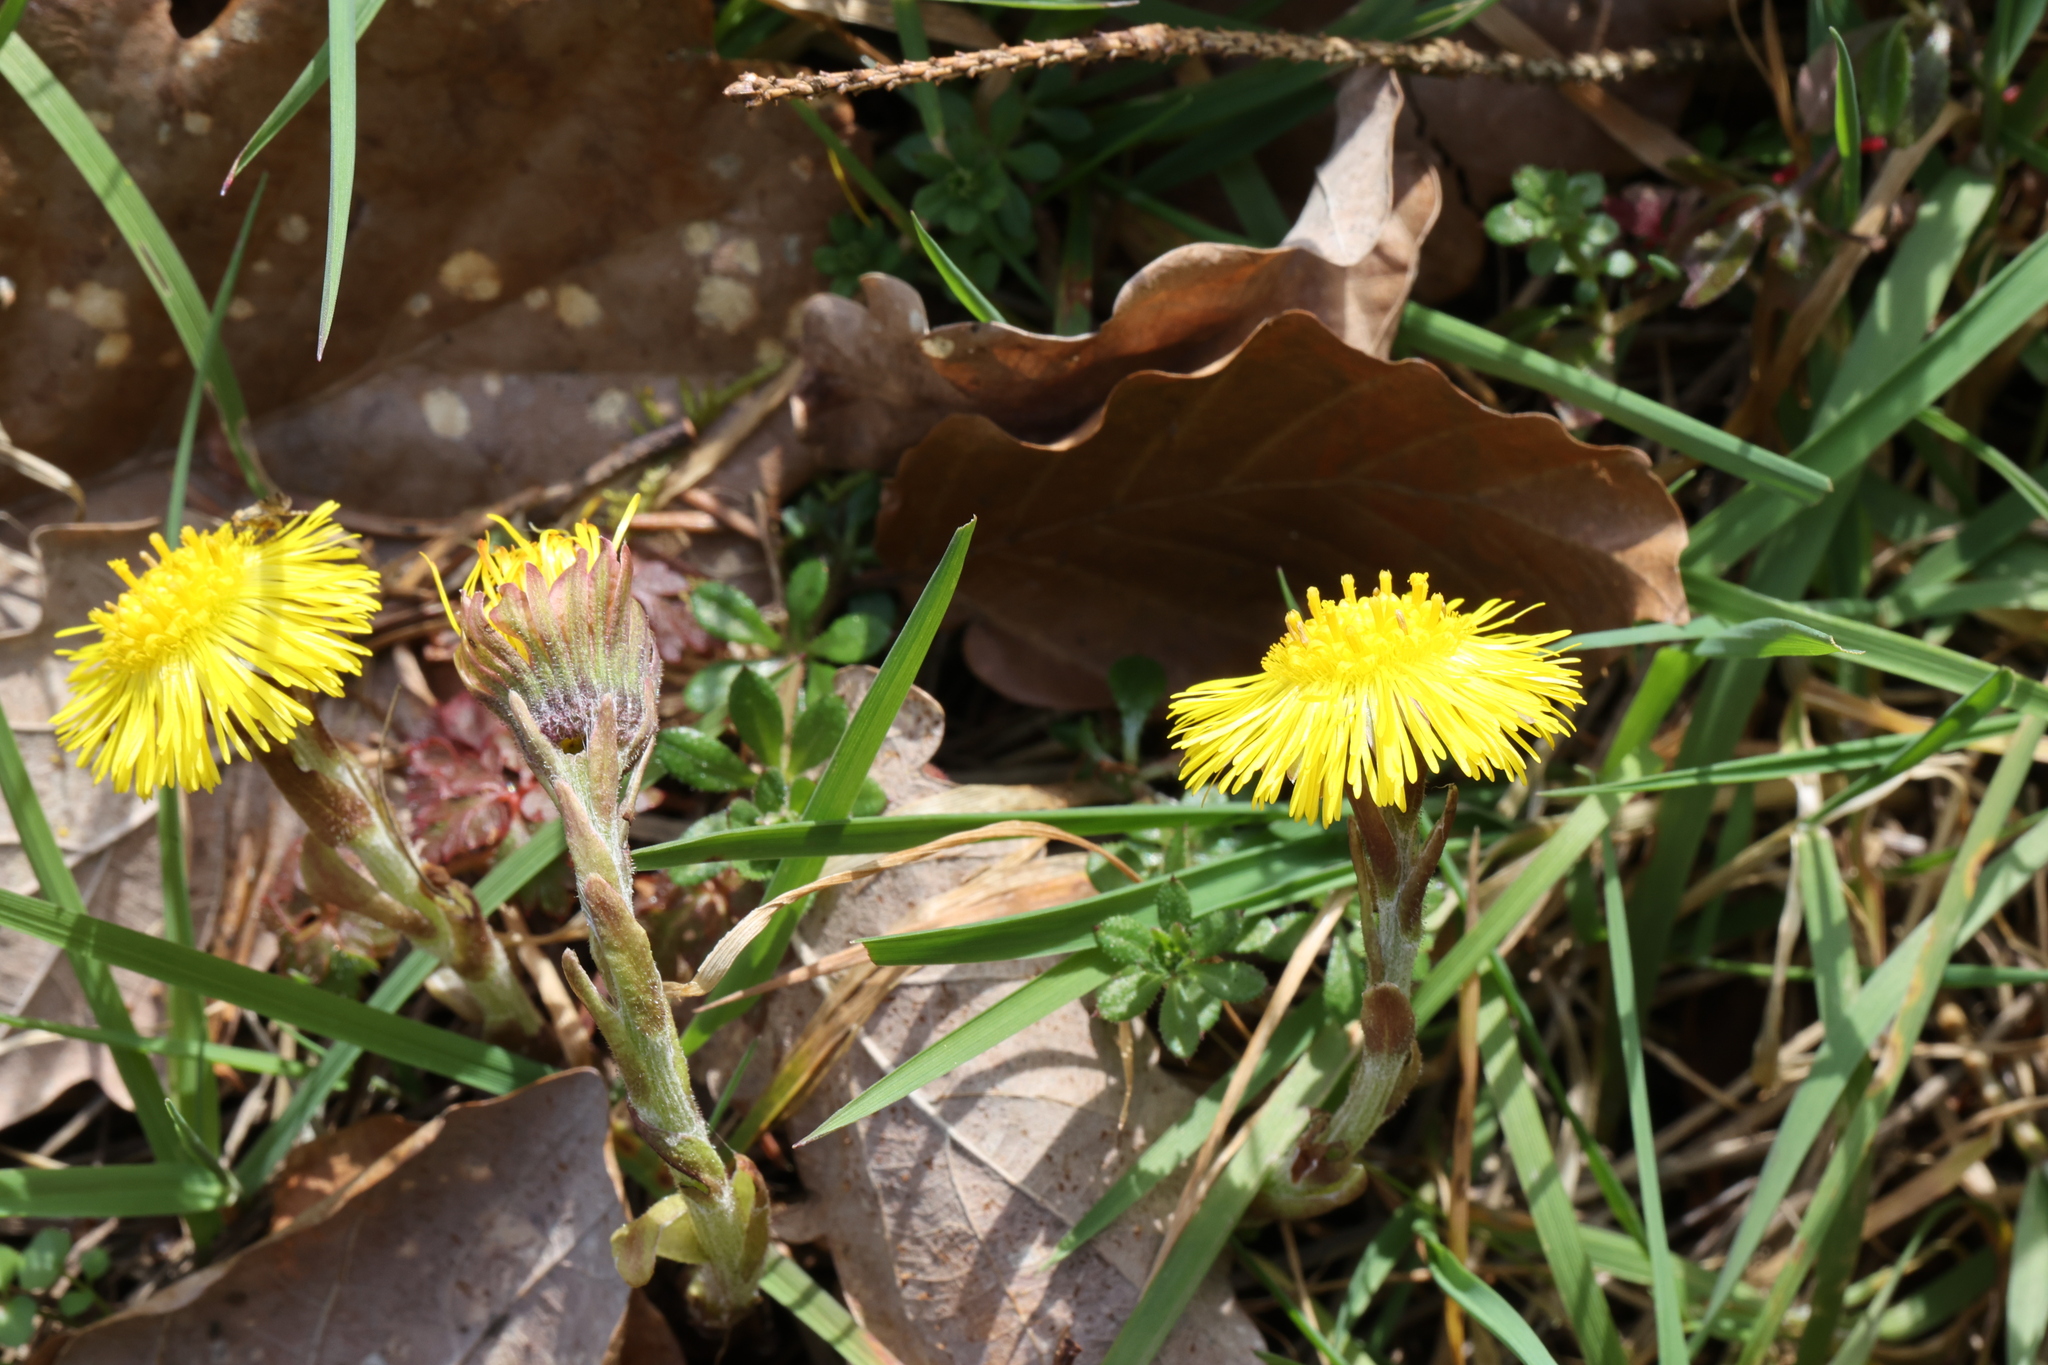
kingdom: Plantae
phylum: Tracheophyta
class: Magnoliopsida
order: Asterales
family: Asteraceae
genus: Tussilago
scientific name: Tussilago farfara
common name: Coltsfoot
